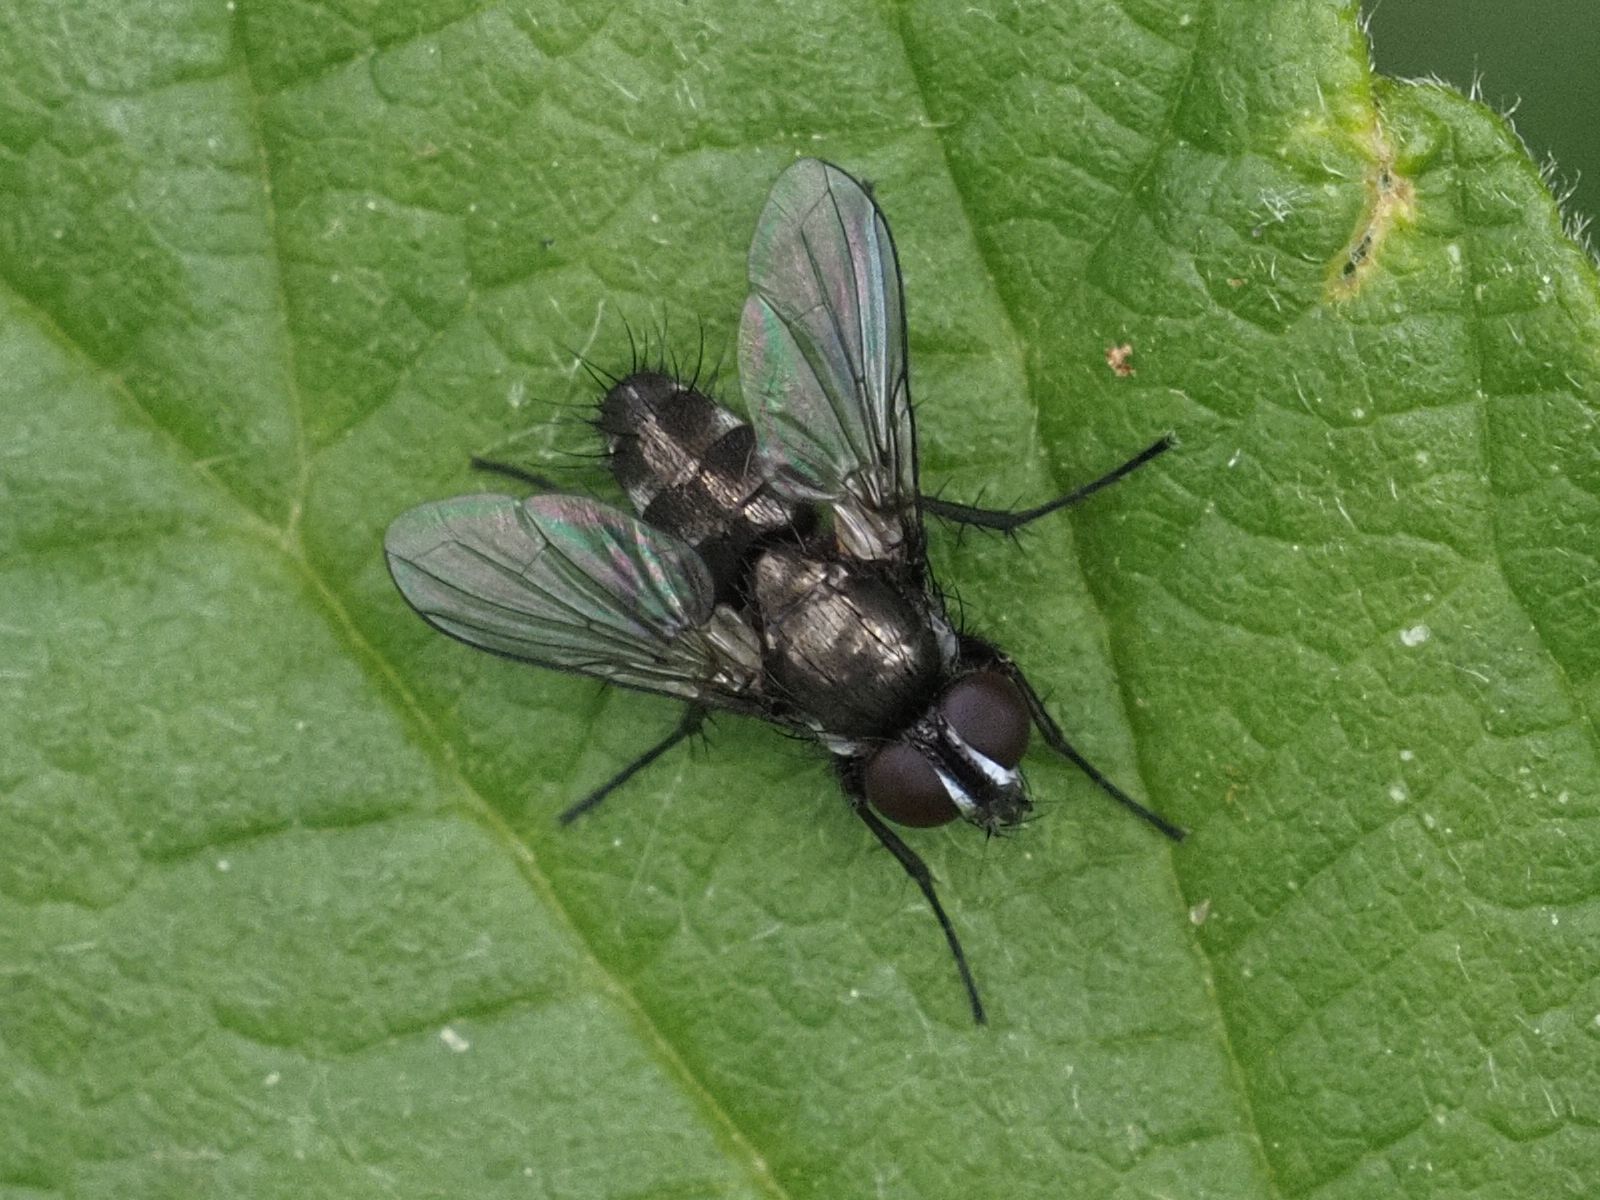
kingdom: Animalia
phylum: Arthropoda
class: Insecta
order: Diptera
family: Calliphoridae
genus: Rhinophora
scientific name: Rhinophora lepida
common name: Pouting woodlouse-fly
